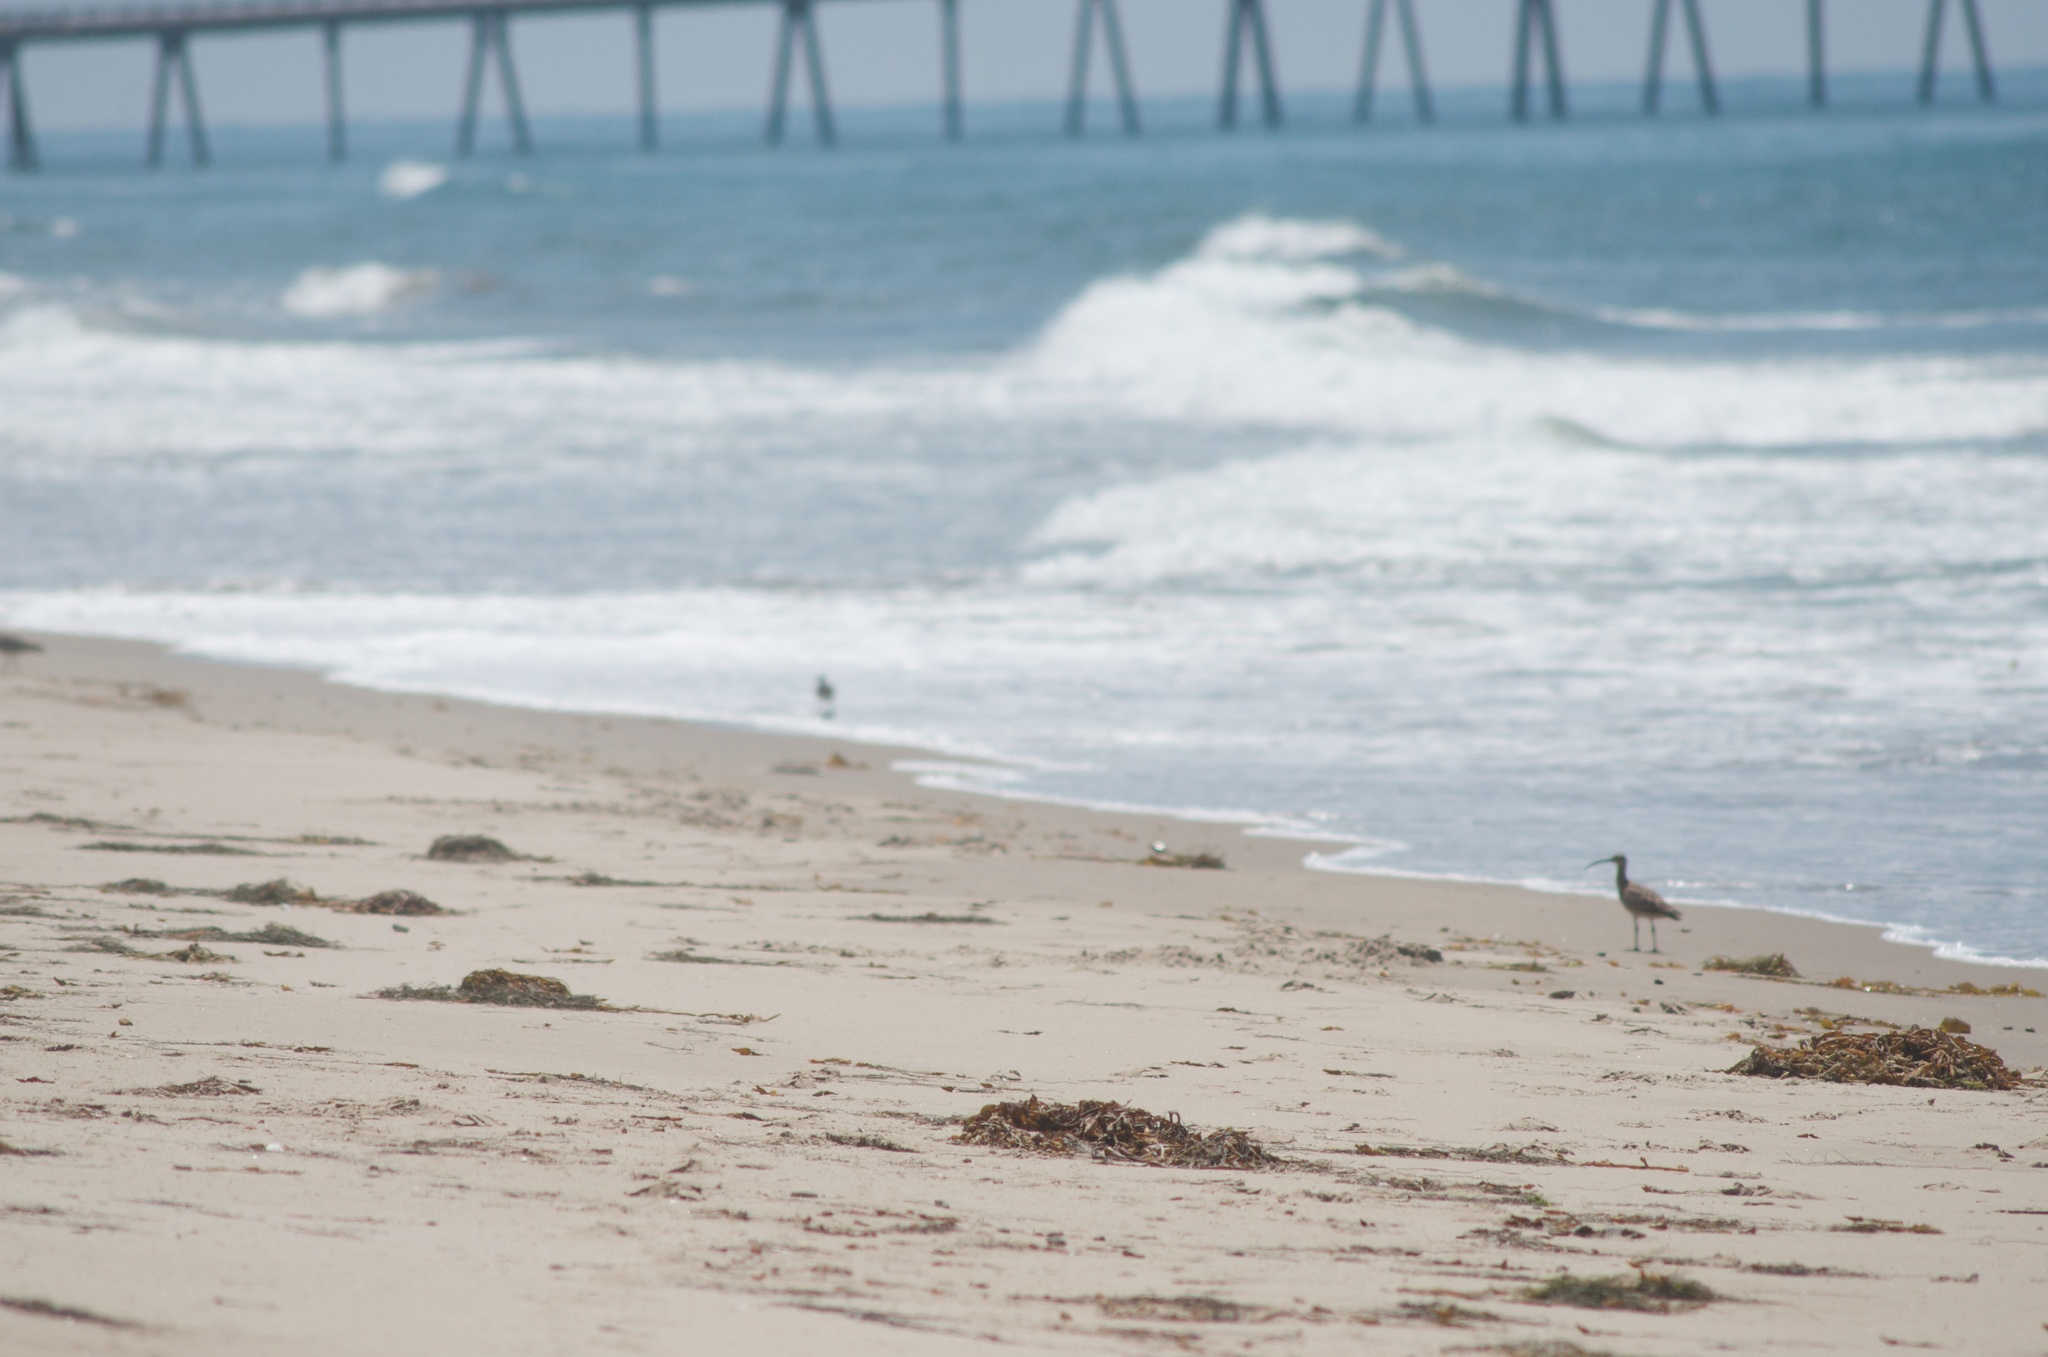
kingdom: Animalia
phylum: Chordata
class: Aves
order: Charadriiformes
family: Scolopacidae
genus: Numenius
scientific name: Numenius phaeopus
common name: Whimbrel
